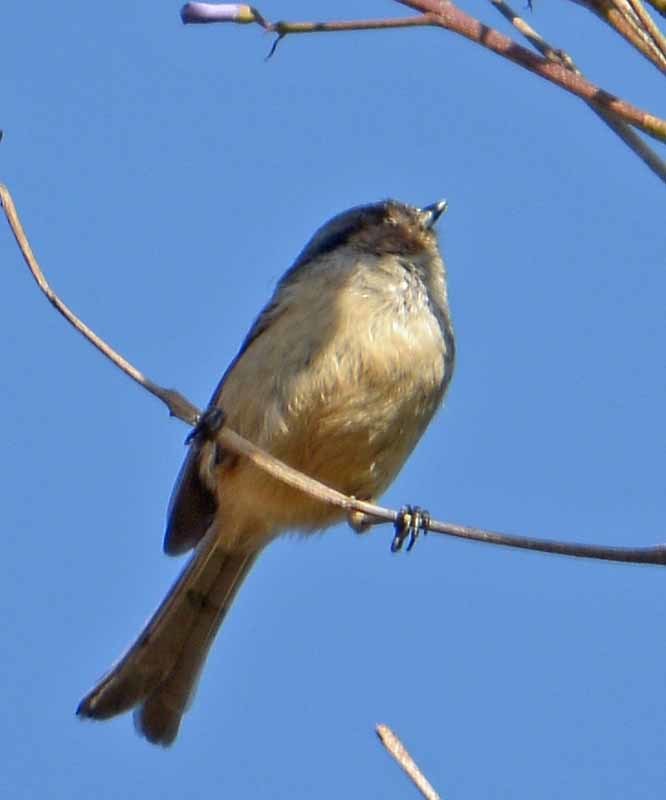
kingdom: Animalia
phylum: Chordata
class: Aves
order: Passeriformes
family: Aegithalidae
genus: Psaltriparus
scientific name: Psaltriparus minimus
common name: American bushtit
